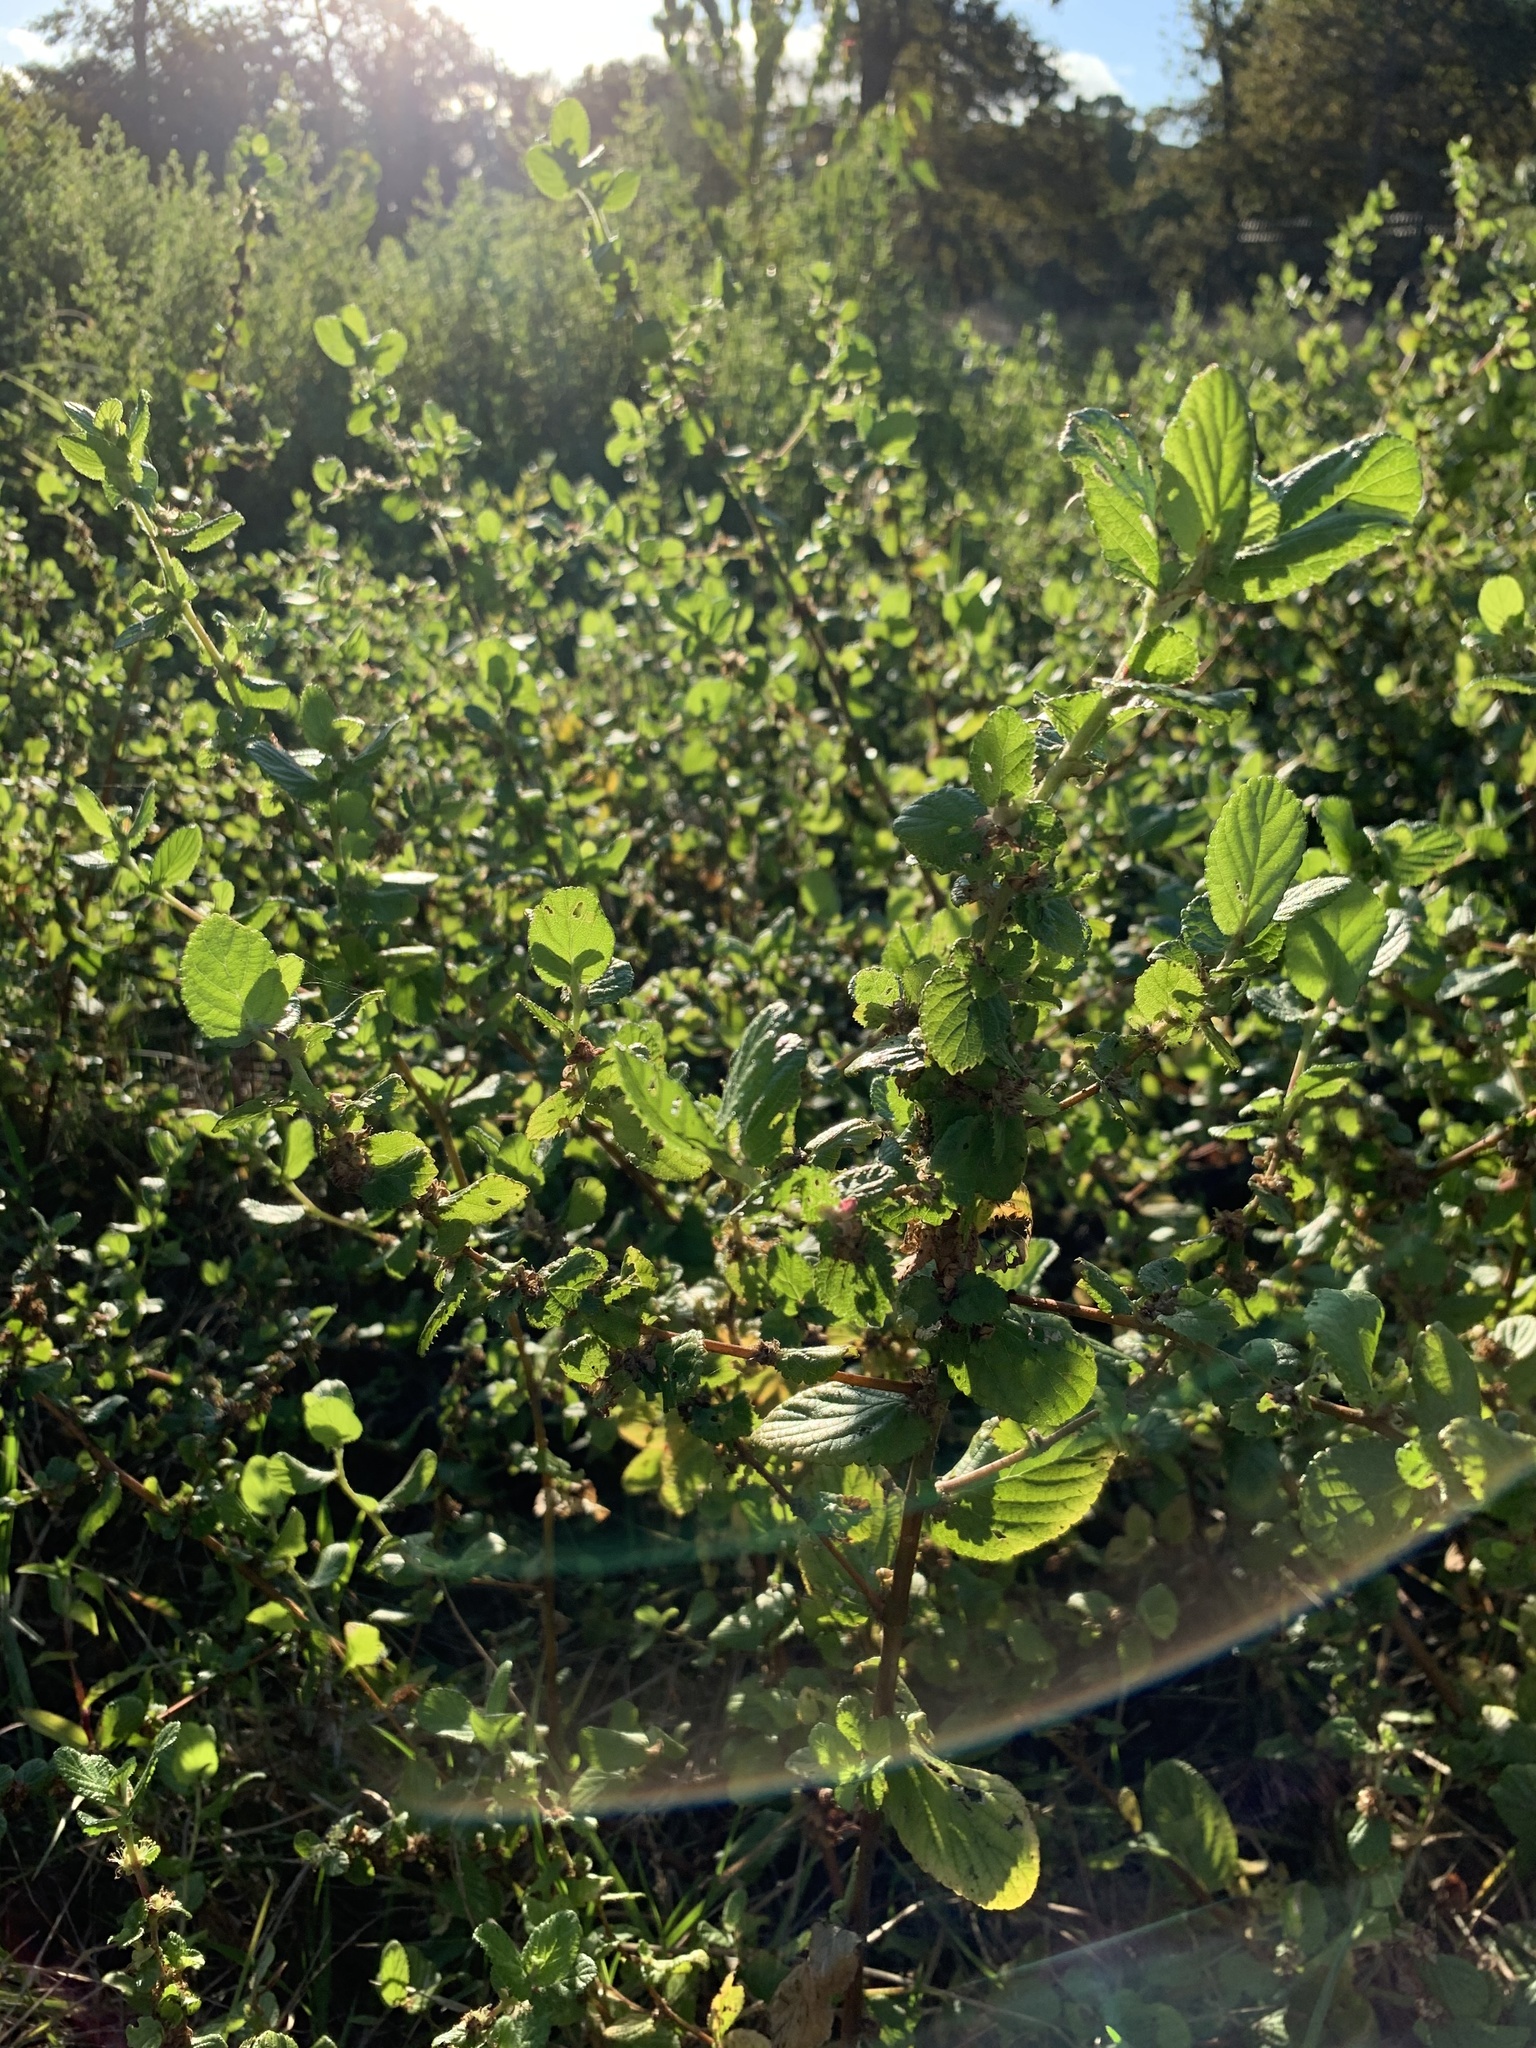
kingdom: Plantae
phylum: Tracheophyta
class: Magnoliopsida
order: Rosales
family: Rosaceae
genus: Cliffortia
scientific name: Cliffortia odorata
